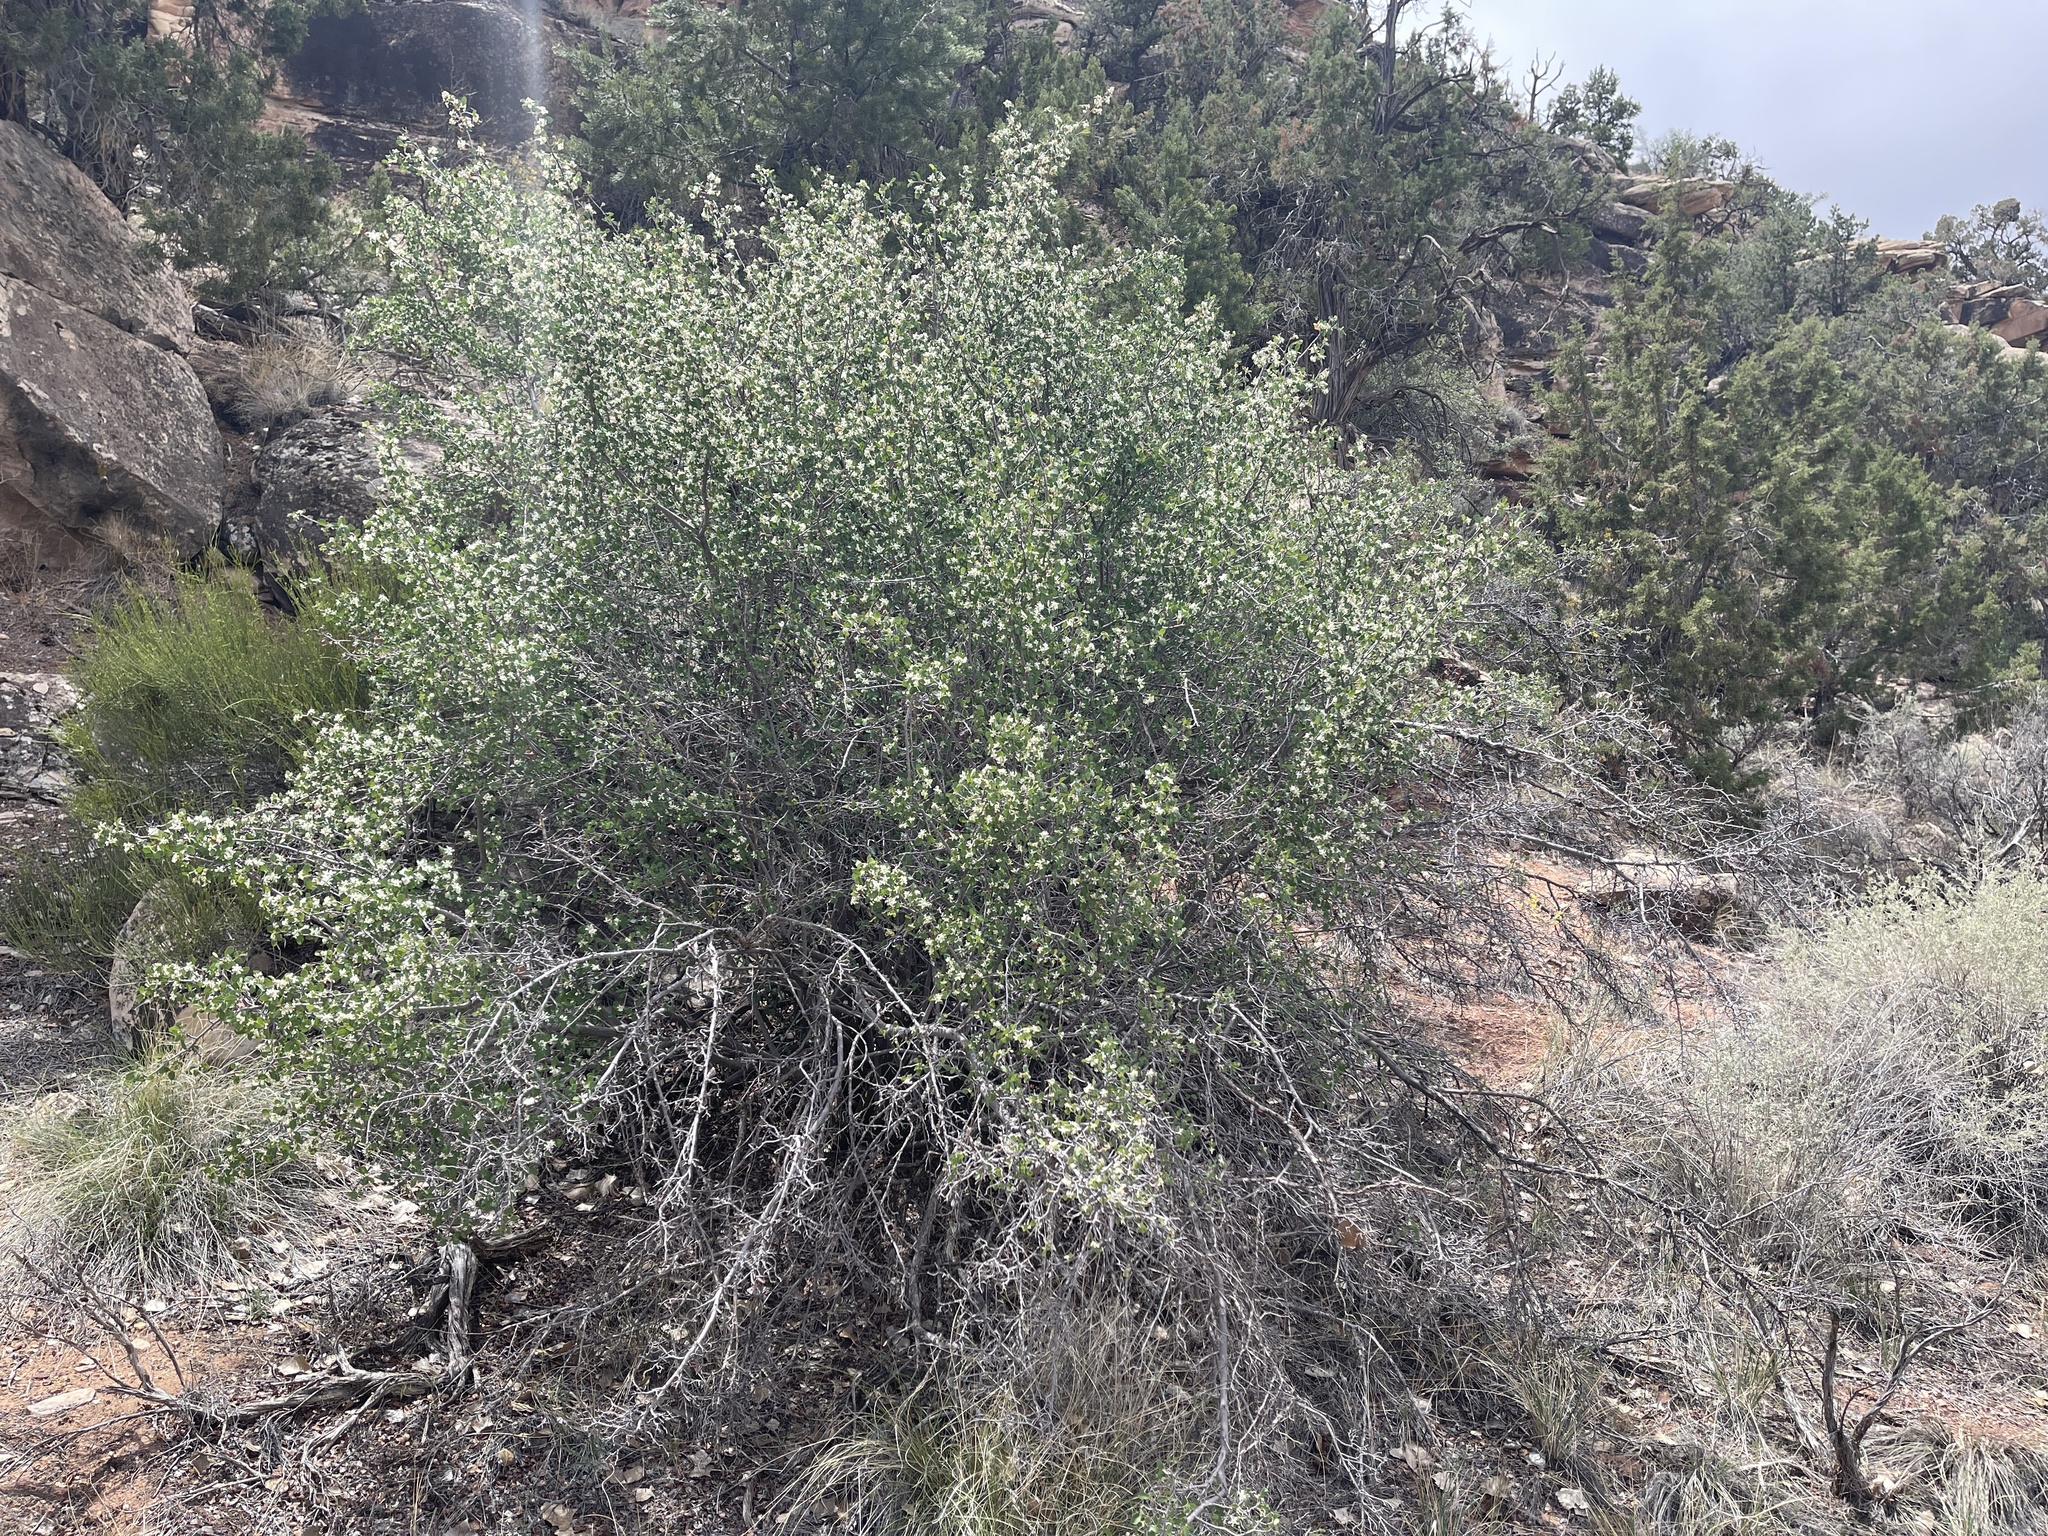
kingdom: Plantae
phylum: Tracheophyta
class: Magnoliopsida
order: Rosales
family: Rosaceae
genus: Amelanchier
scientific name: Amelanchier utahensis
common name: Utah serviceberry
